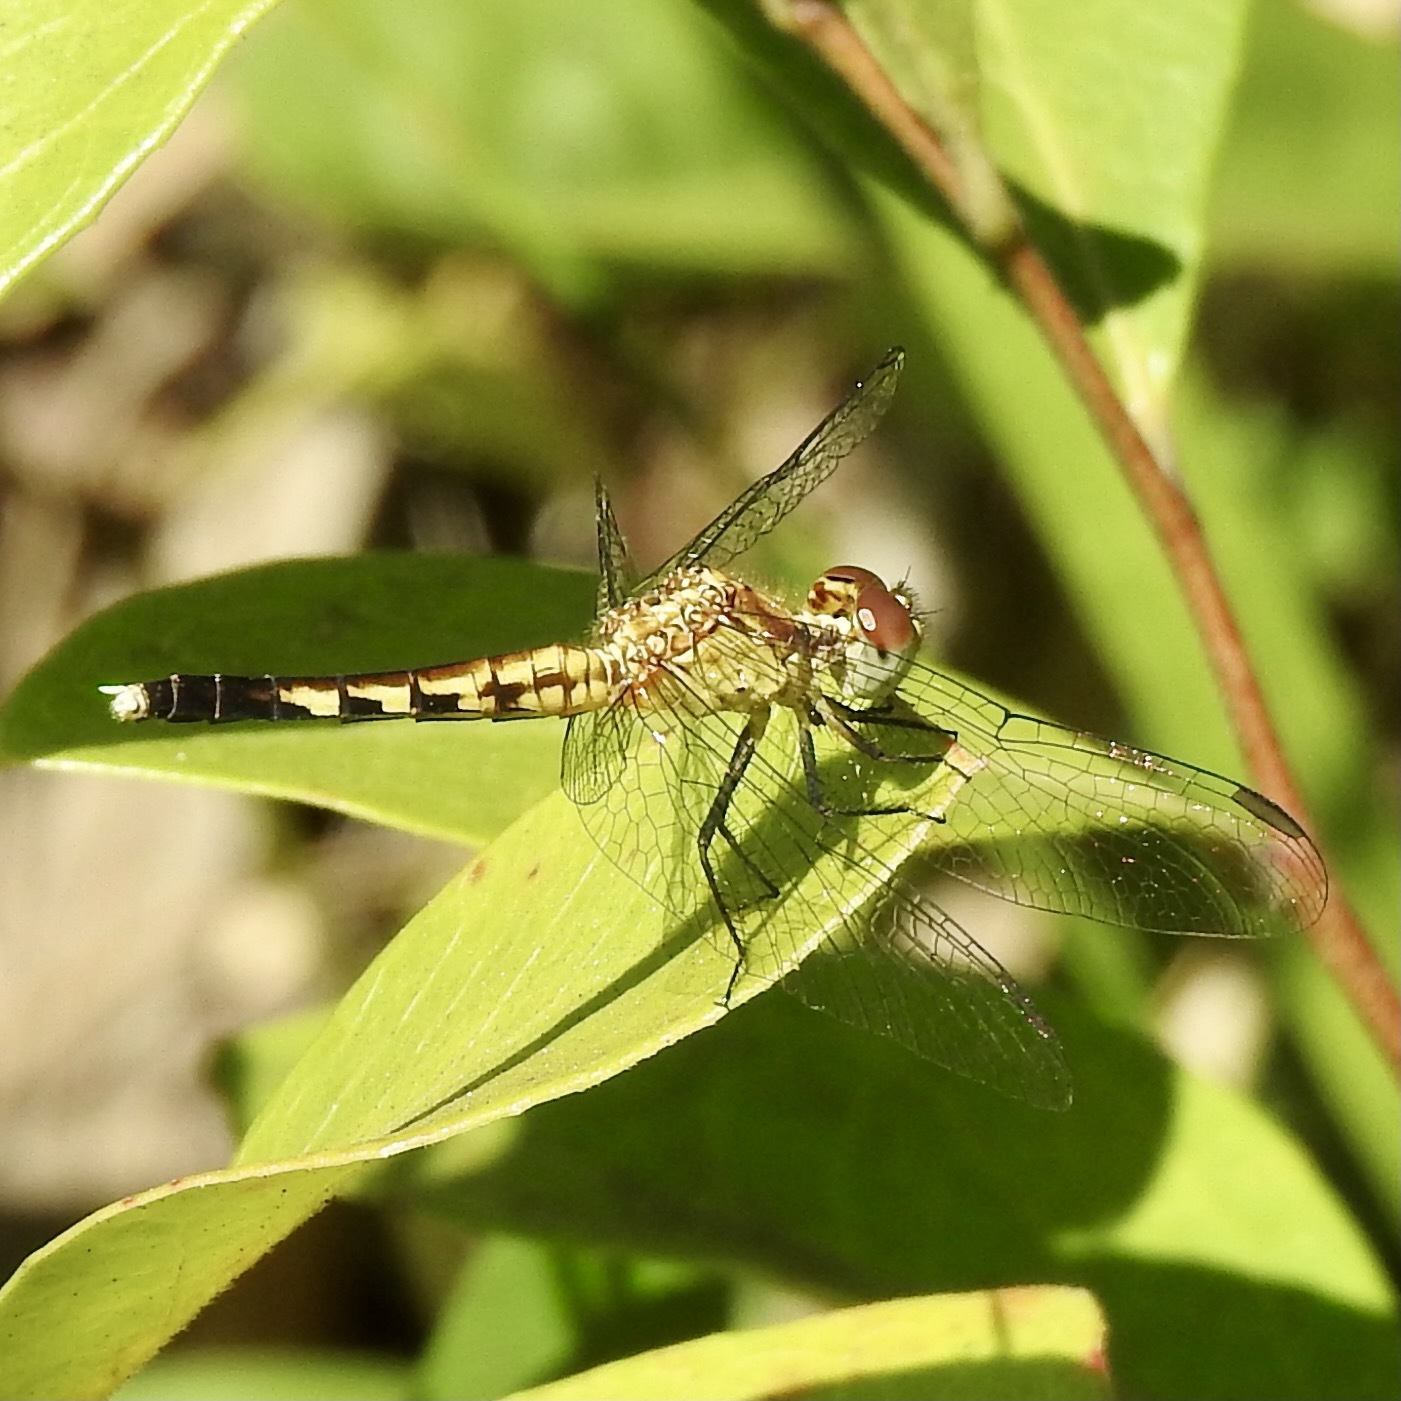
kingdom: Animalia
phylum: Arthropoda
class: Insecta
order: Odonata
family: Libellulidae
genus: Erythrodiplax
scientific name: Erythrodiplax minuscula
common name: Little blue dragonlet
